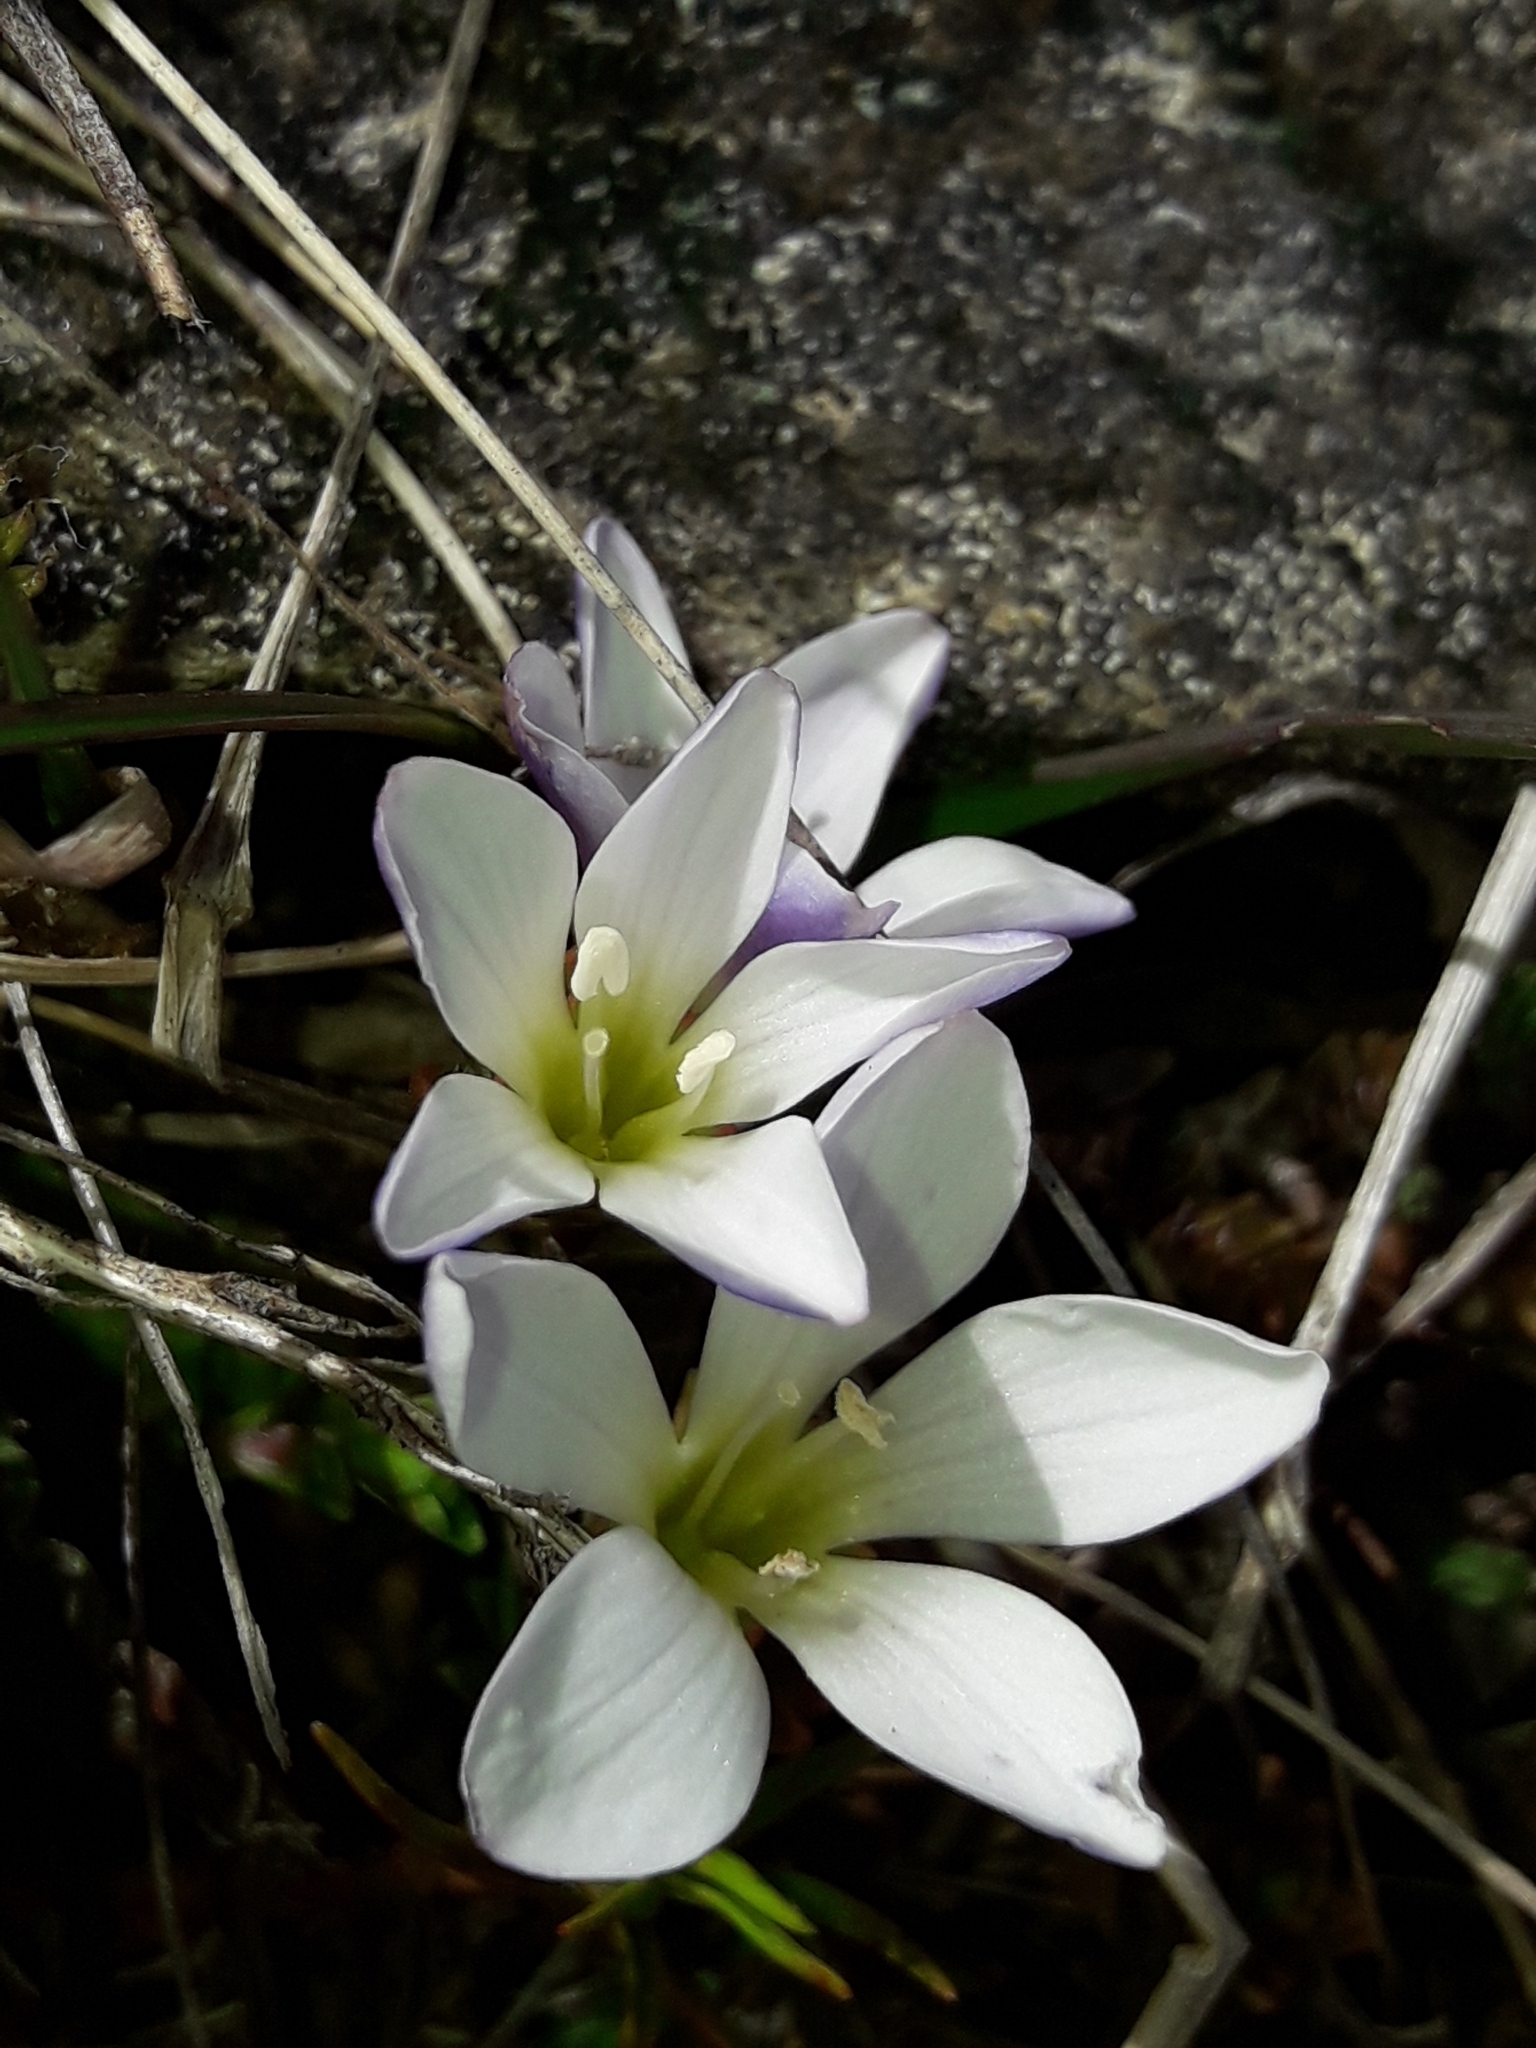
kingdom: Plantae
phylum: Tracheophyta
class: Magnoliopsida
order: Lamiales
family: Plantaginaceae
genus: Veronica
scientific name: Veronica densifolia
